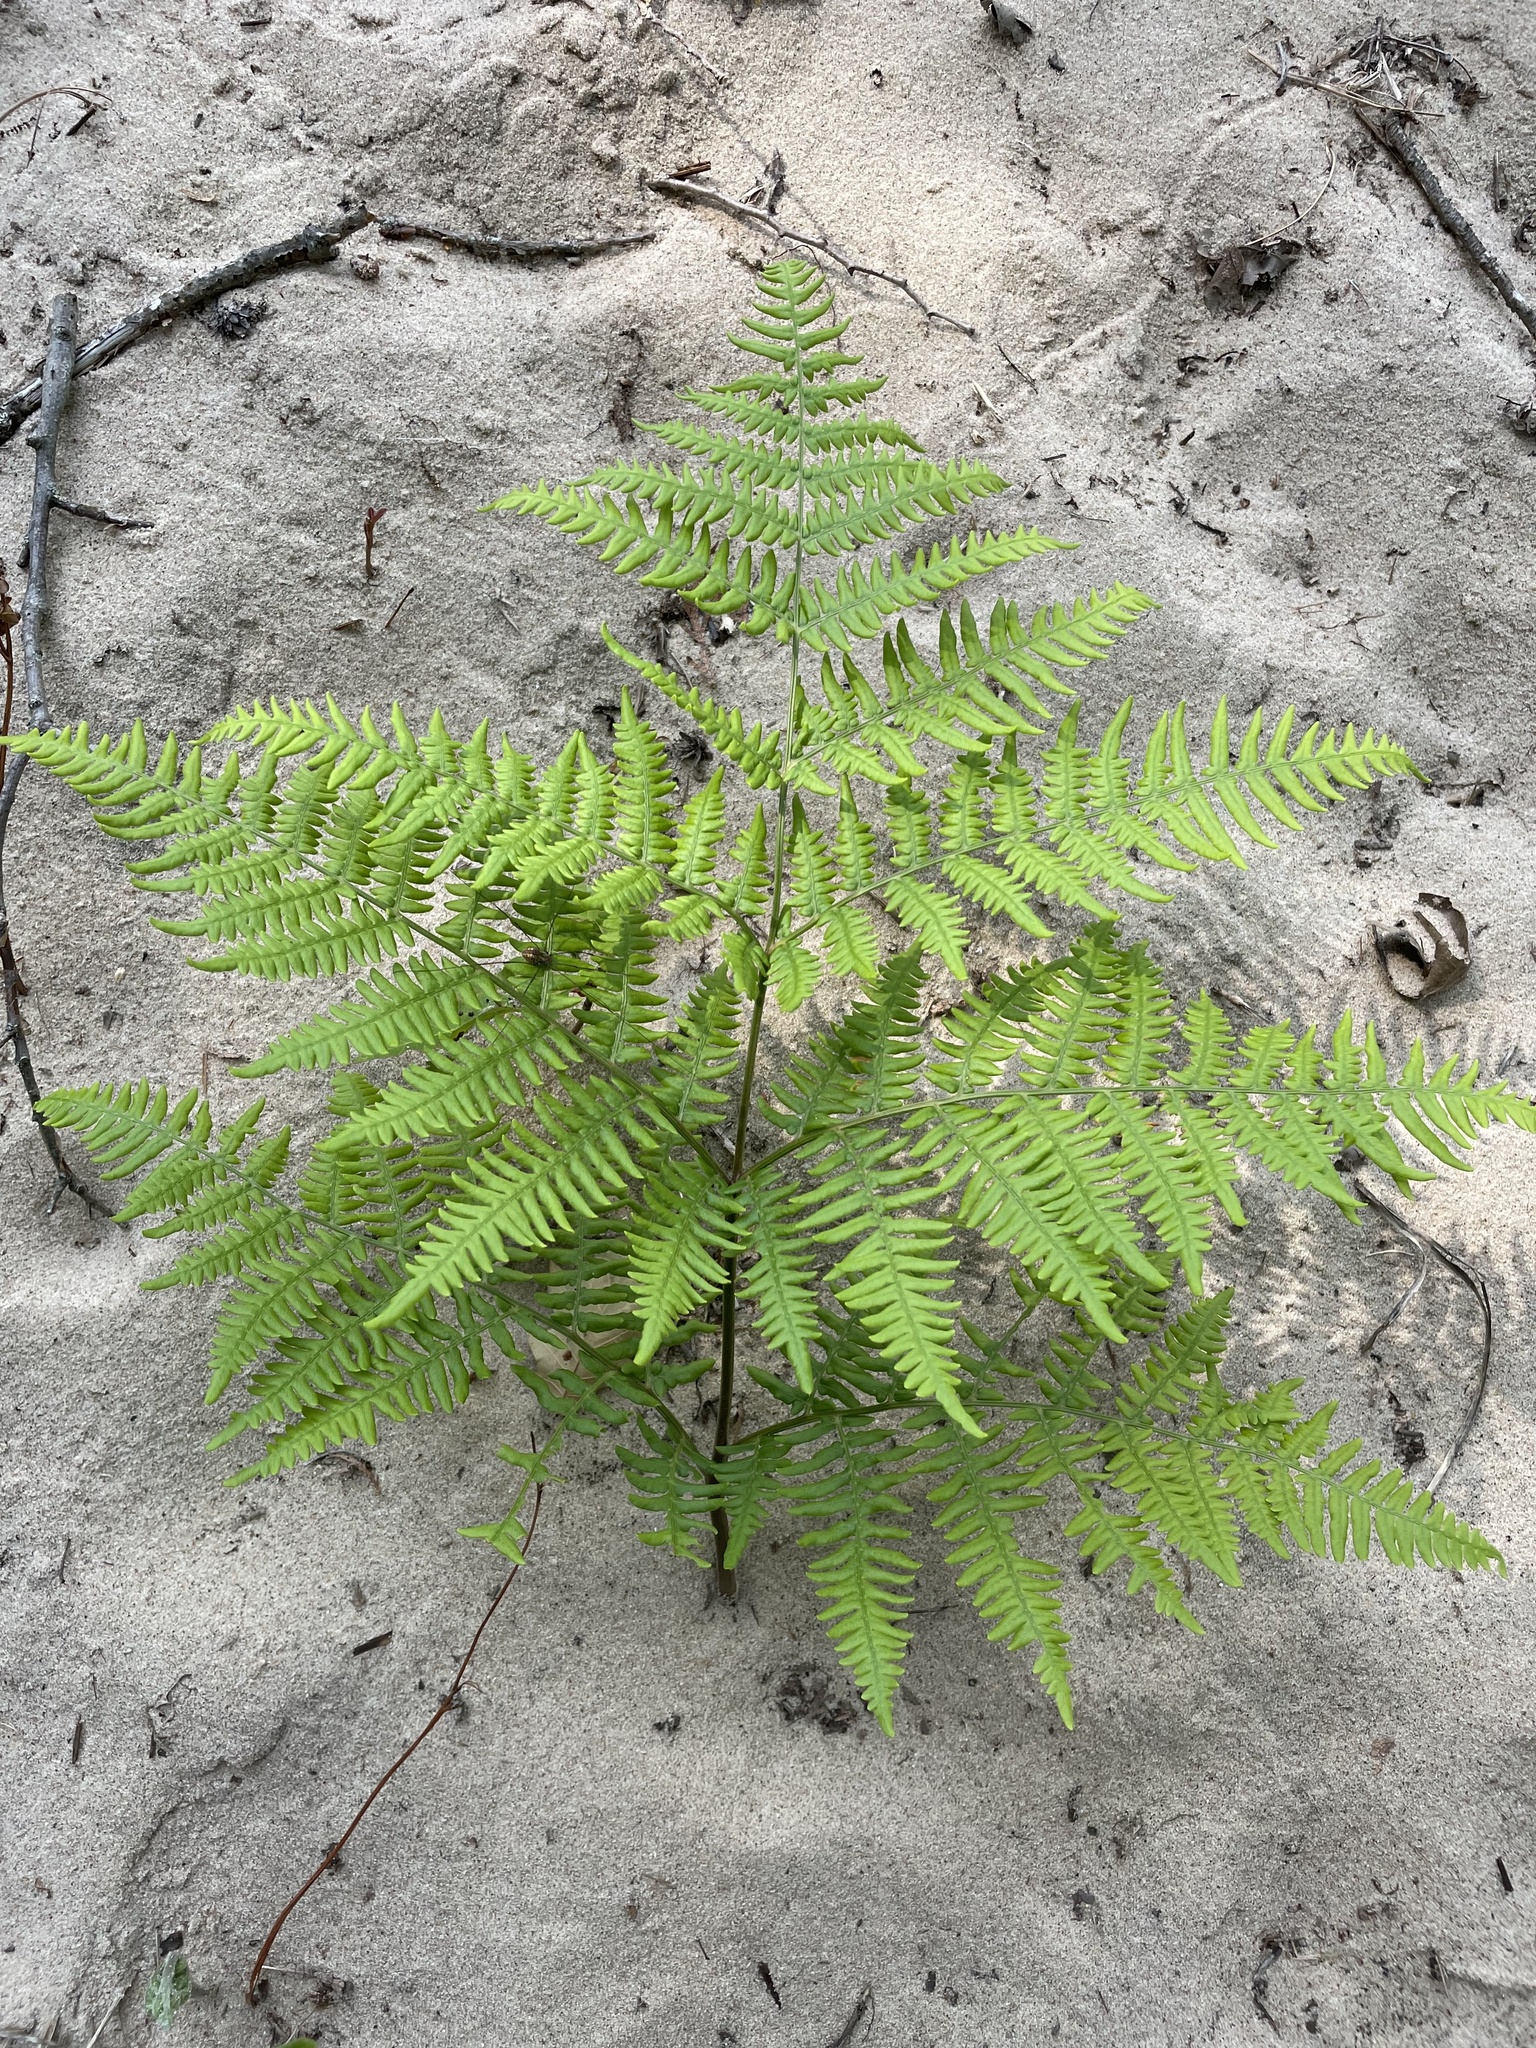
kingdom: Plantae
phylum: Tracheophyta
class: Polypodiopsida
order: Polypodiales
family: Dennstaedtiaceae
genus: Pteridium
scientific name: Pteridium aquilinum
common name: Bracken
